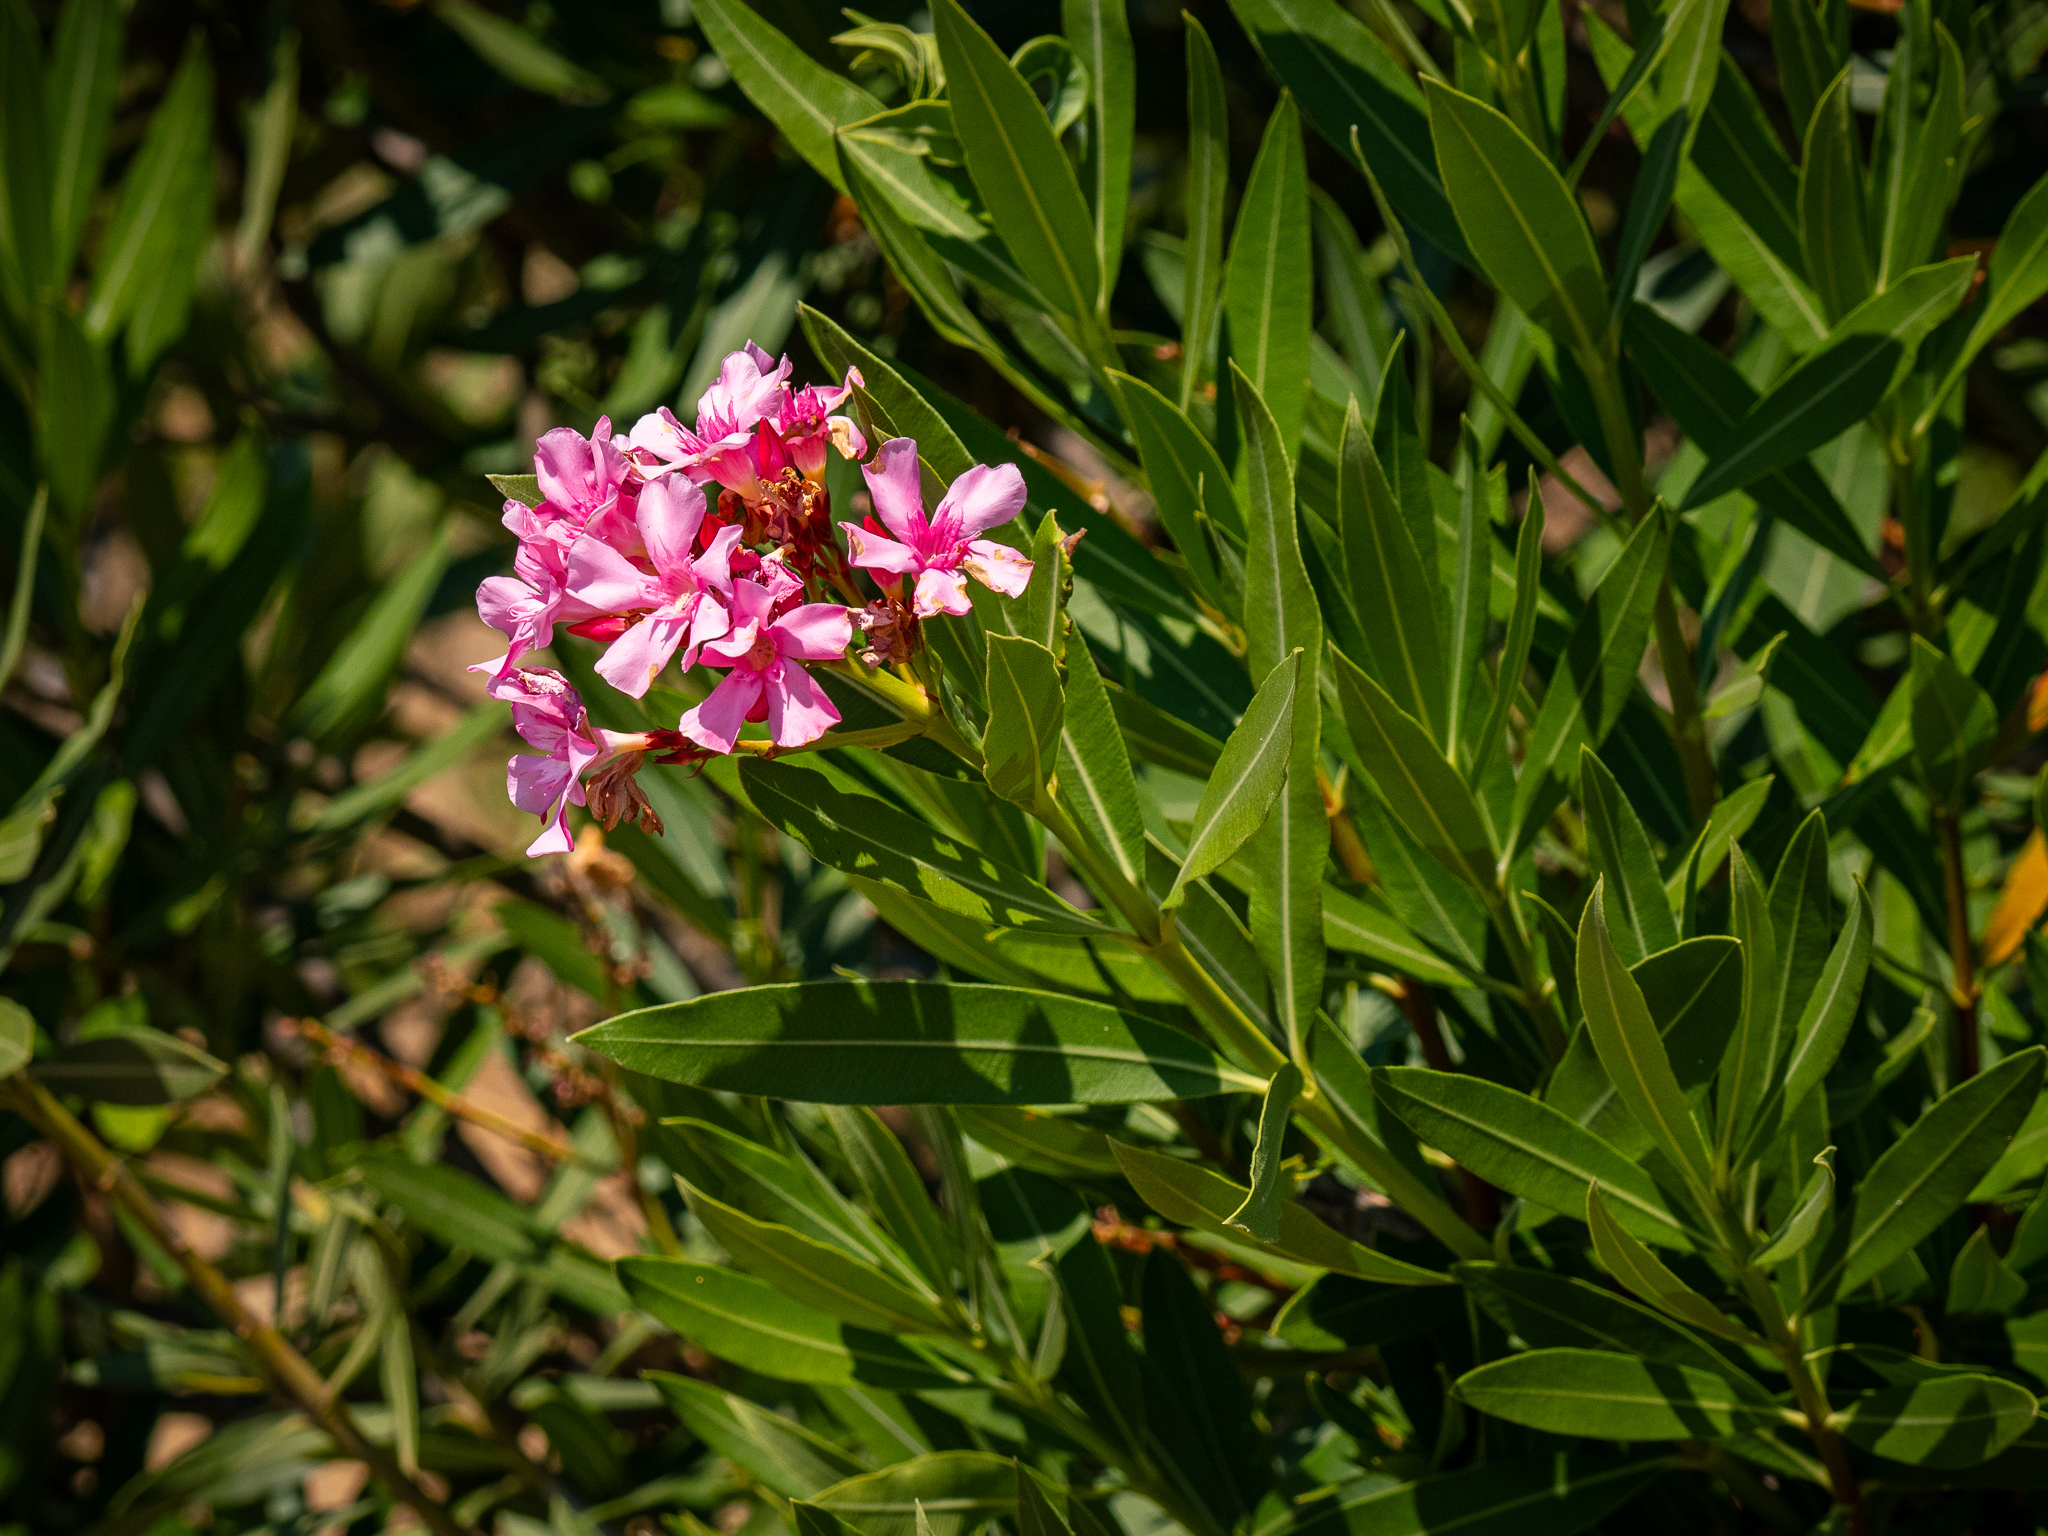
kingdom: Plantae
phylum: Tracheophyta
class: Magnoliopsida
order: Gentianales
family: Apocynaceae
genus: Nerium
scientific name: Nerium oleander
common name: Oleander
